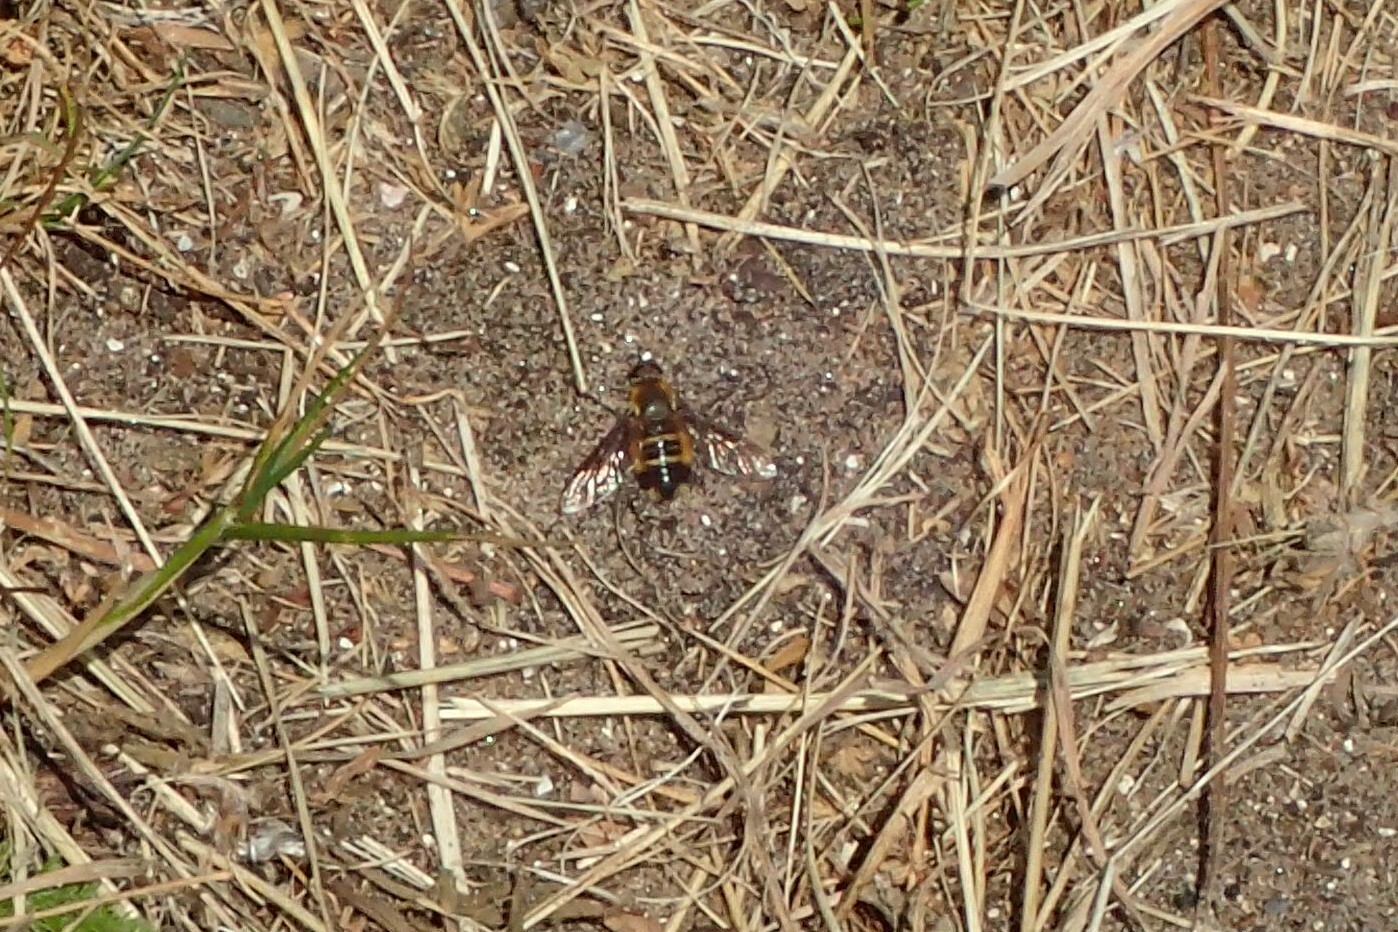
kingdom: Animalia
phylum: Arthropoda
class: Insecta
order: Diptera
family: Bombyliidae
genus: Villa
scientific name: Villa modesta
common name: Dune villa
